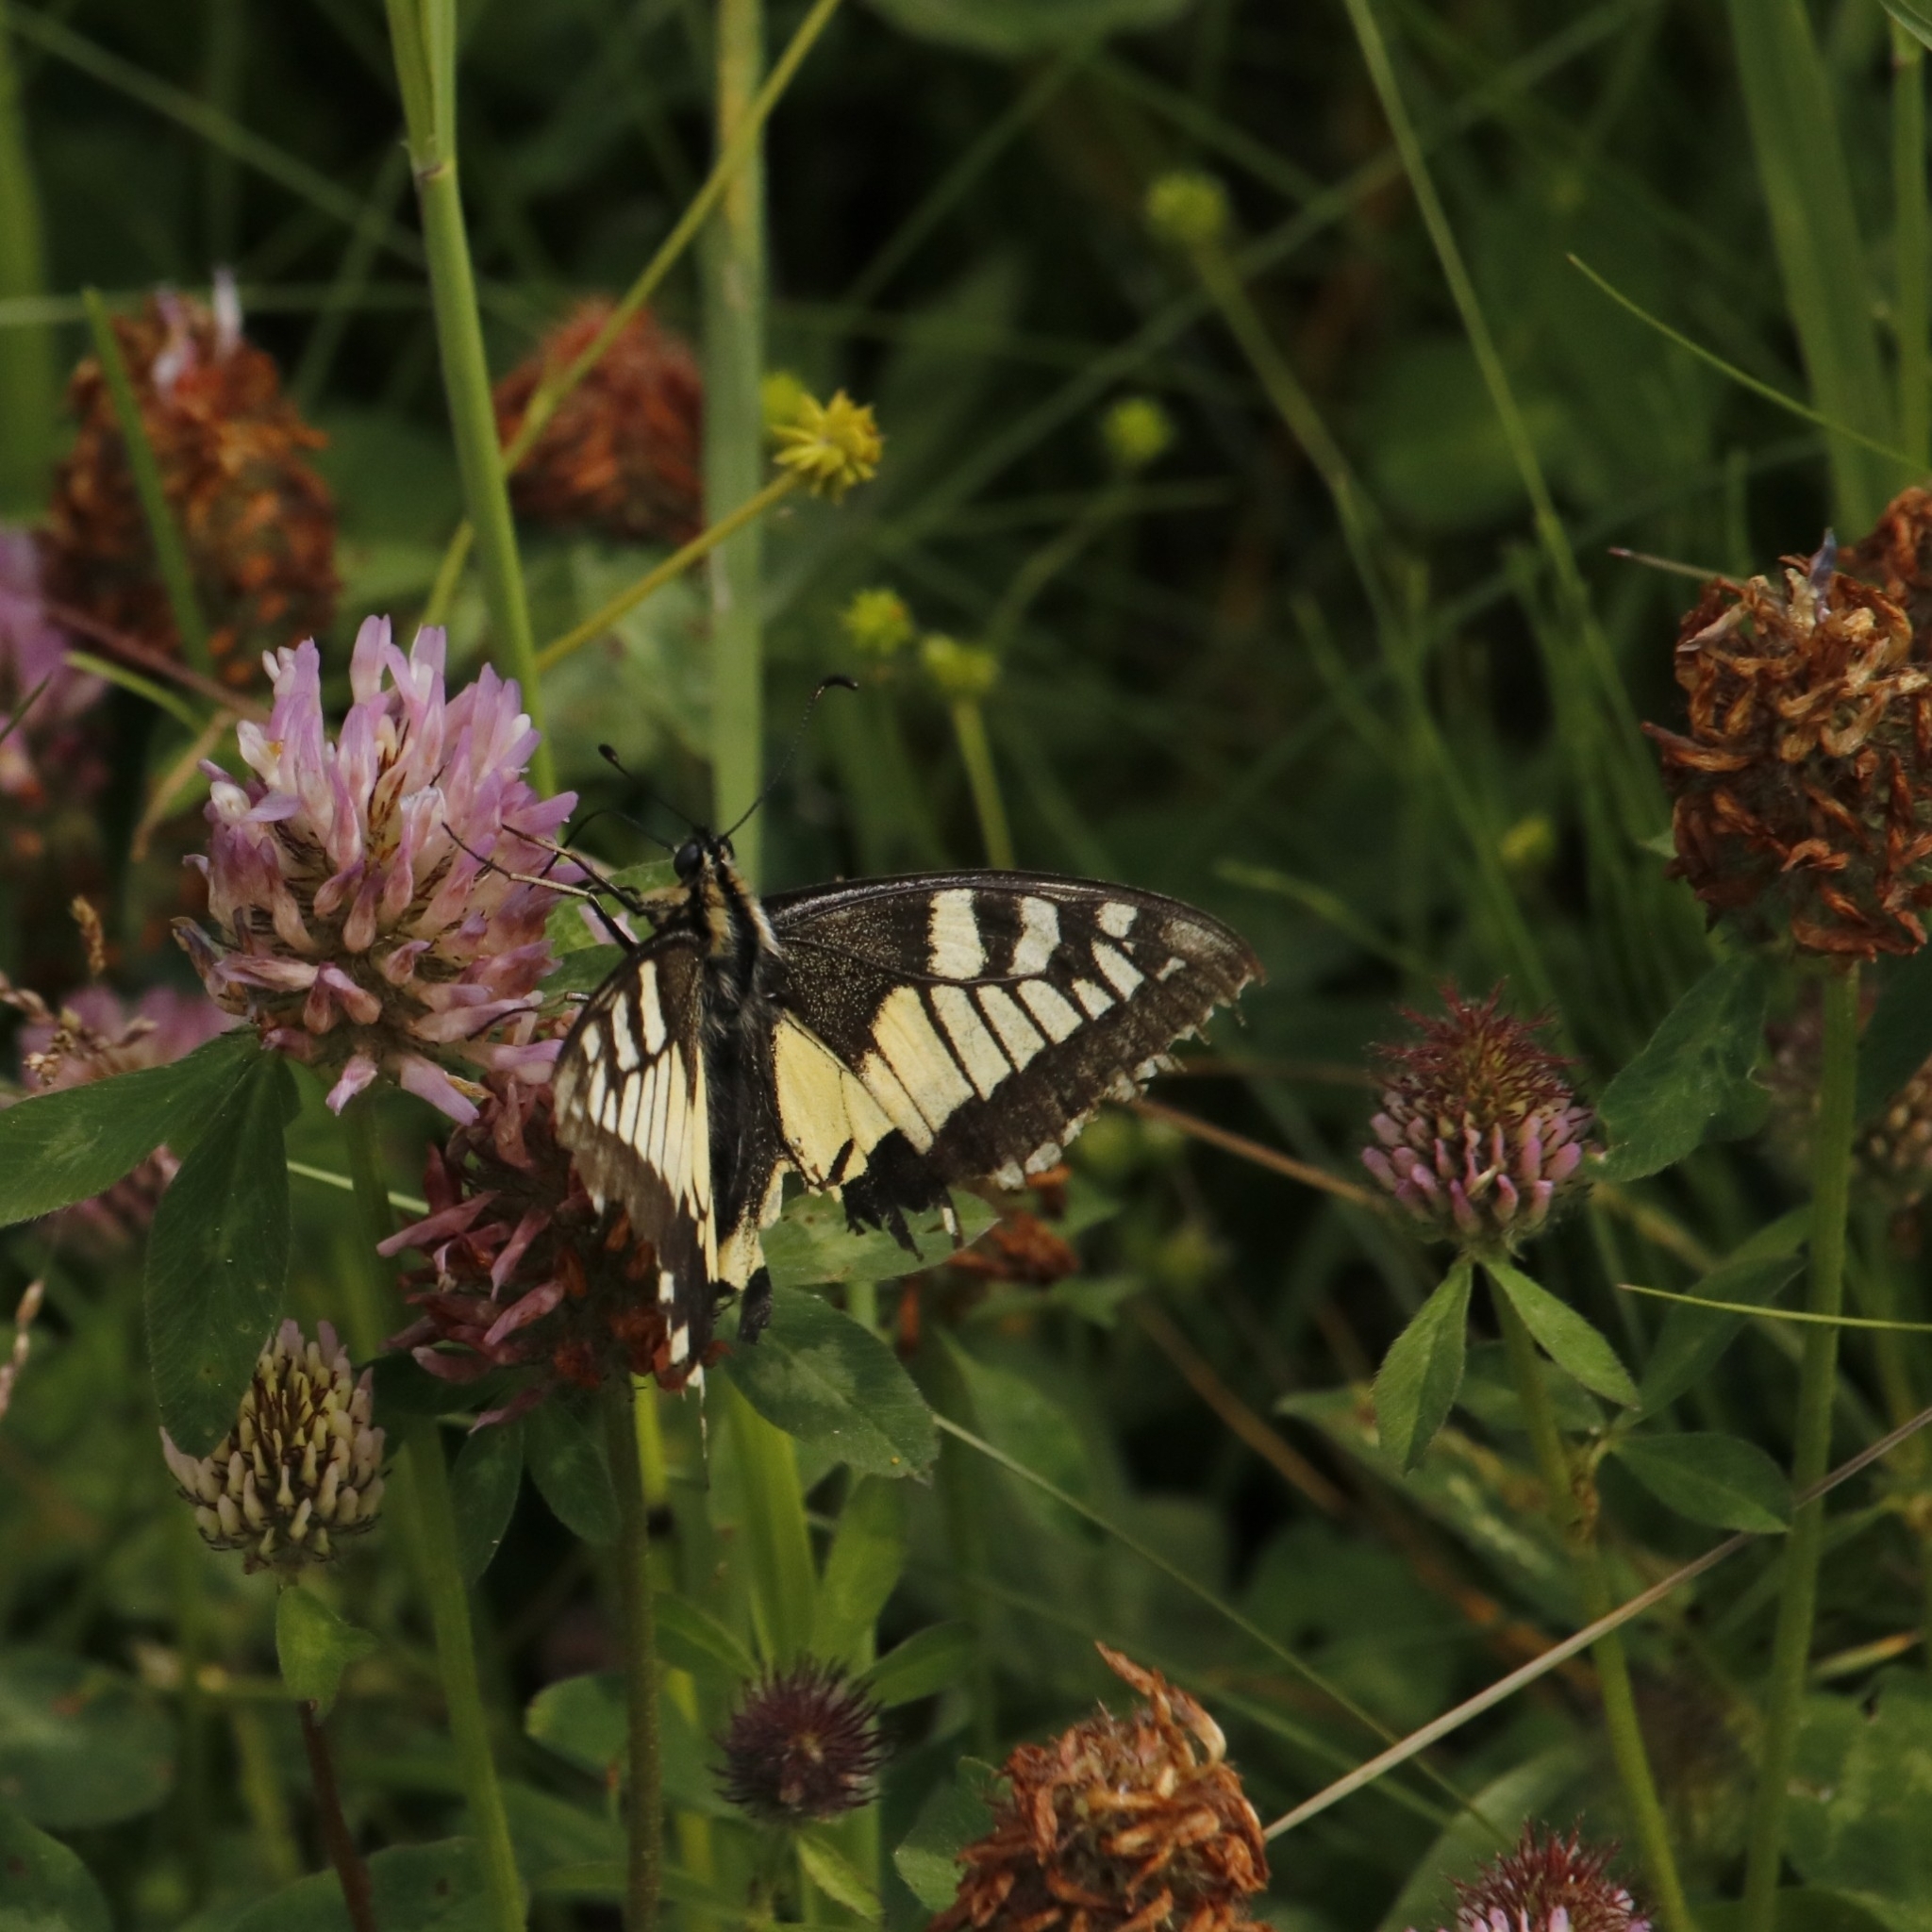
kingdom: Animalia
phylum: Arthropoda
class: Insecta
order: Lepidoptera
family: Papilionidae
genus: Papilio
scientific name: Papilio machaon
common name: Swallowtail
